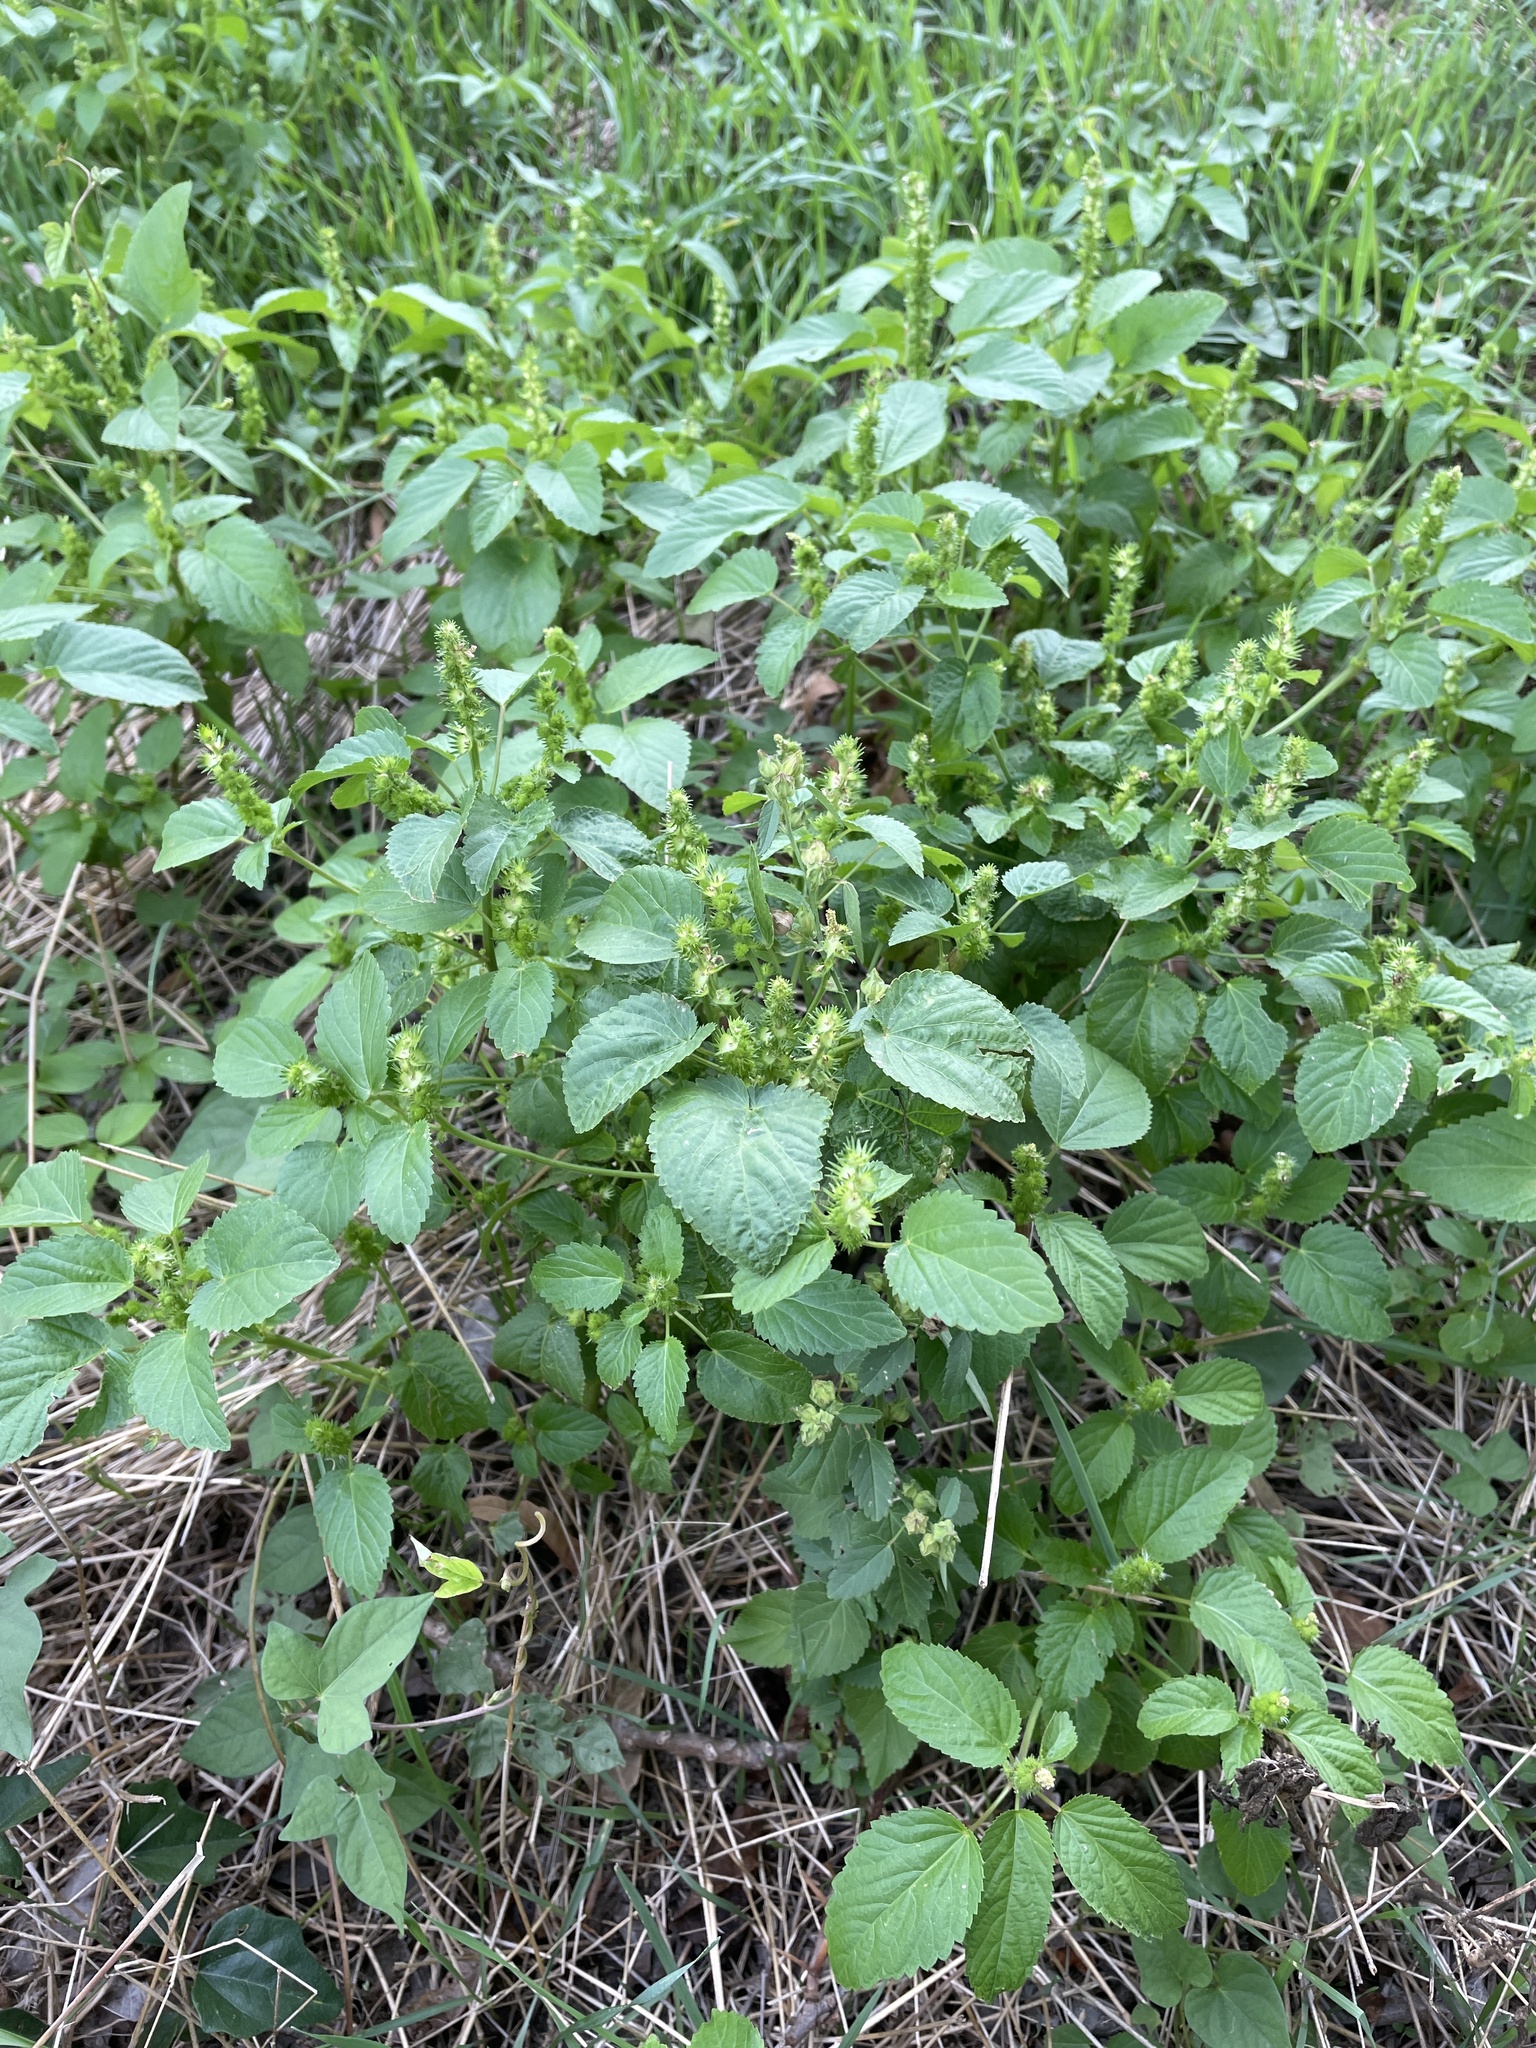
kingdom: Plantae
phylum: Tracheophyta
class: Magnoliopsida
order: Malpighiales
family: Euphorbiaceae
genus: Acalypha
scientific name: Acalypha ostryifolia
